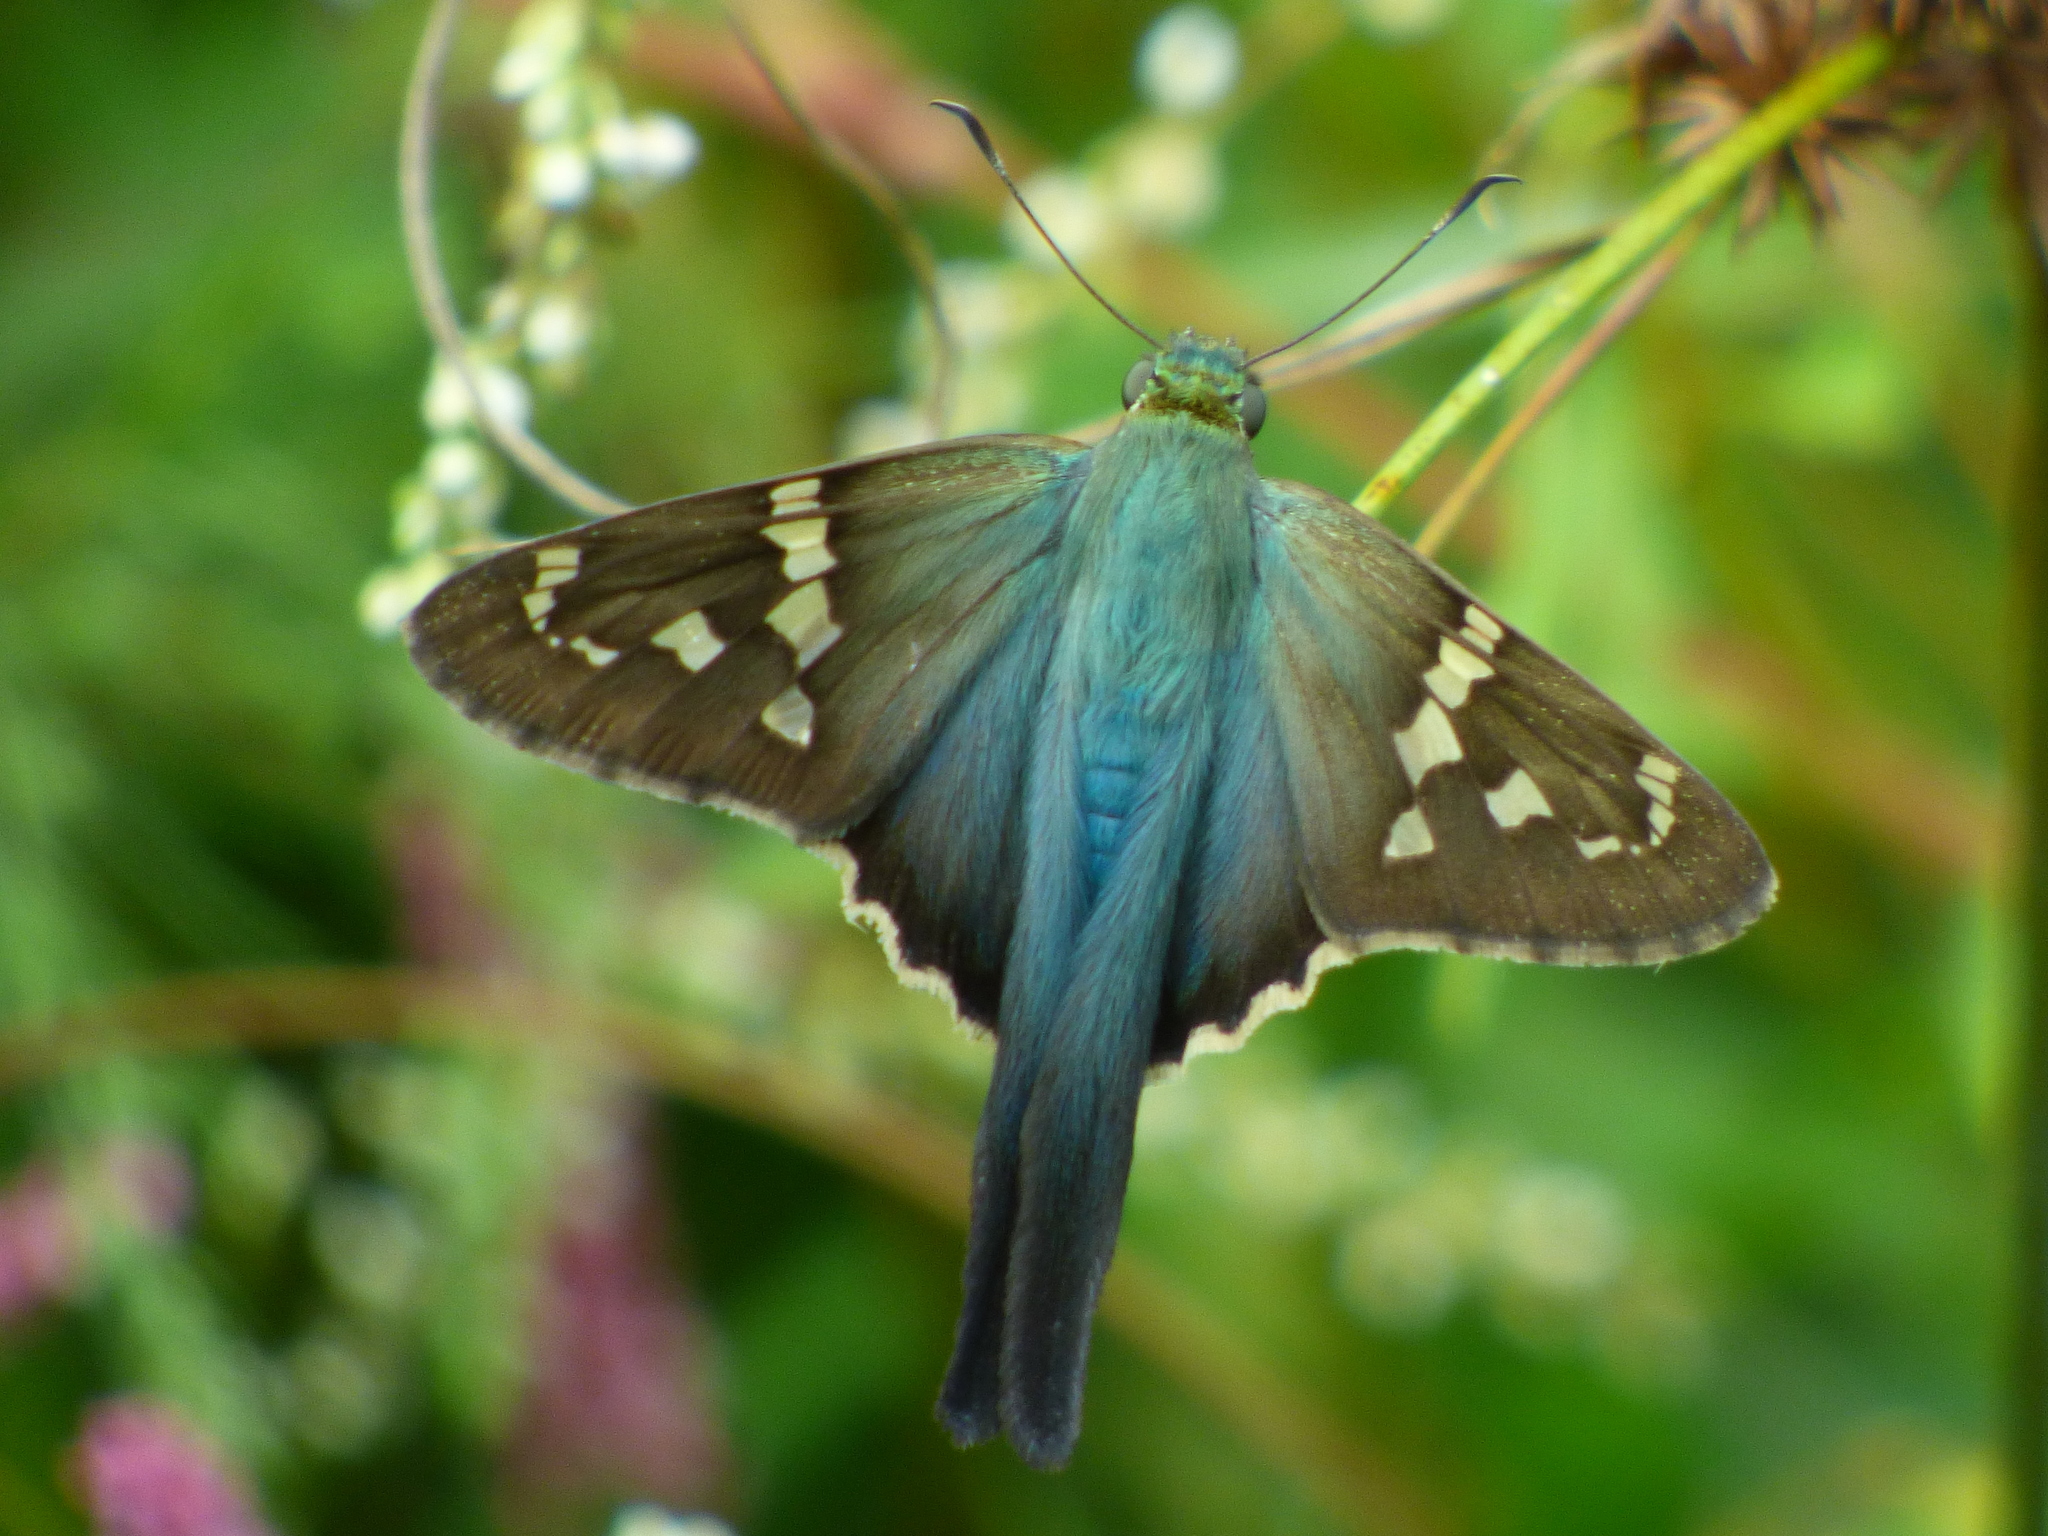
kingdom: Animalia
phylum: Arthropoda
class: Insecta
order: Lepidoptera
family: Hesperiidae
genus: Urbanus
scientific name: Urbanus proteus
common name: Long-tailed skipper
